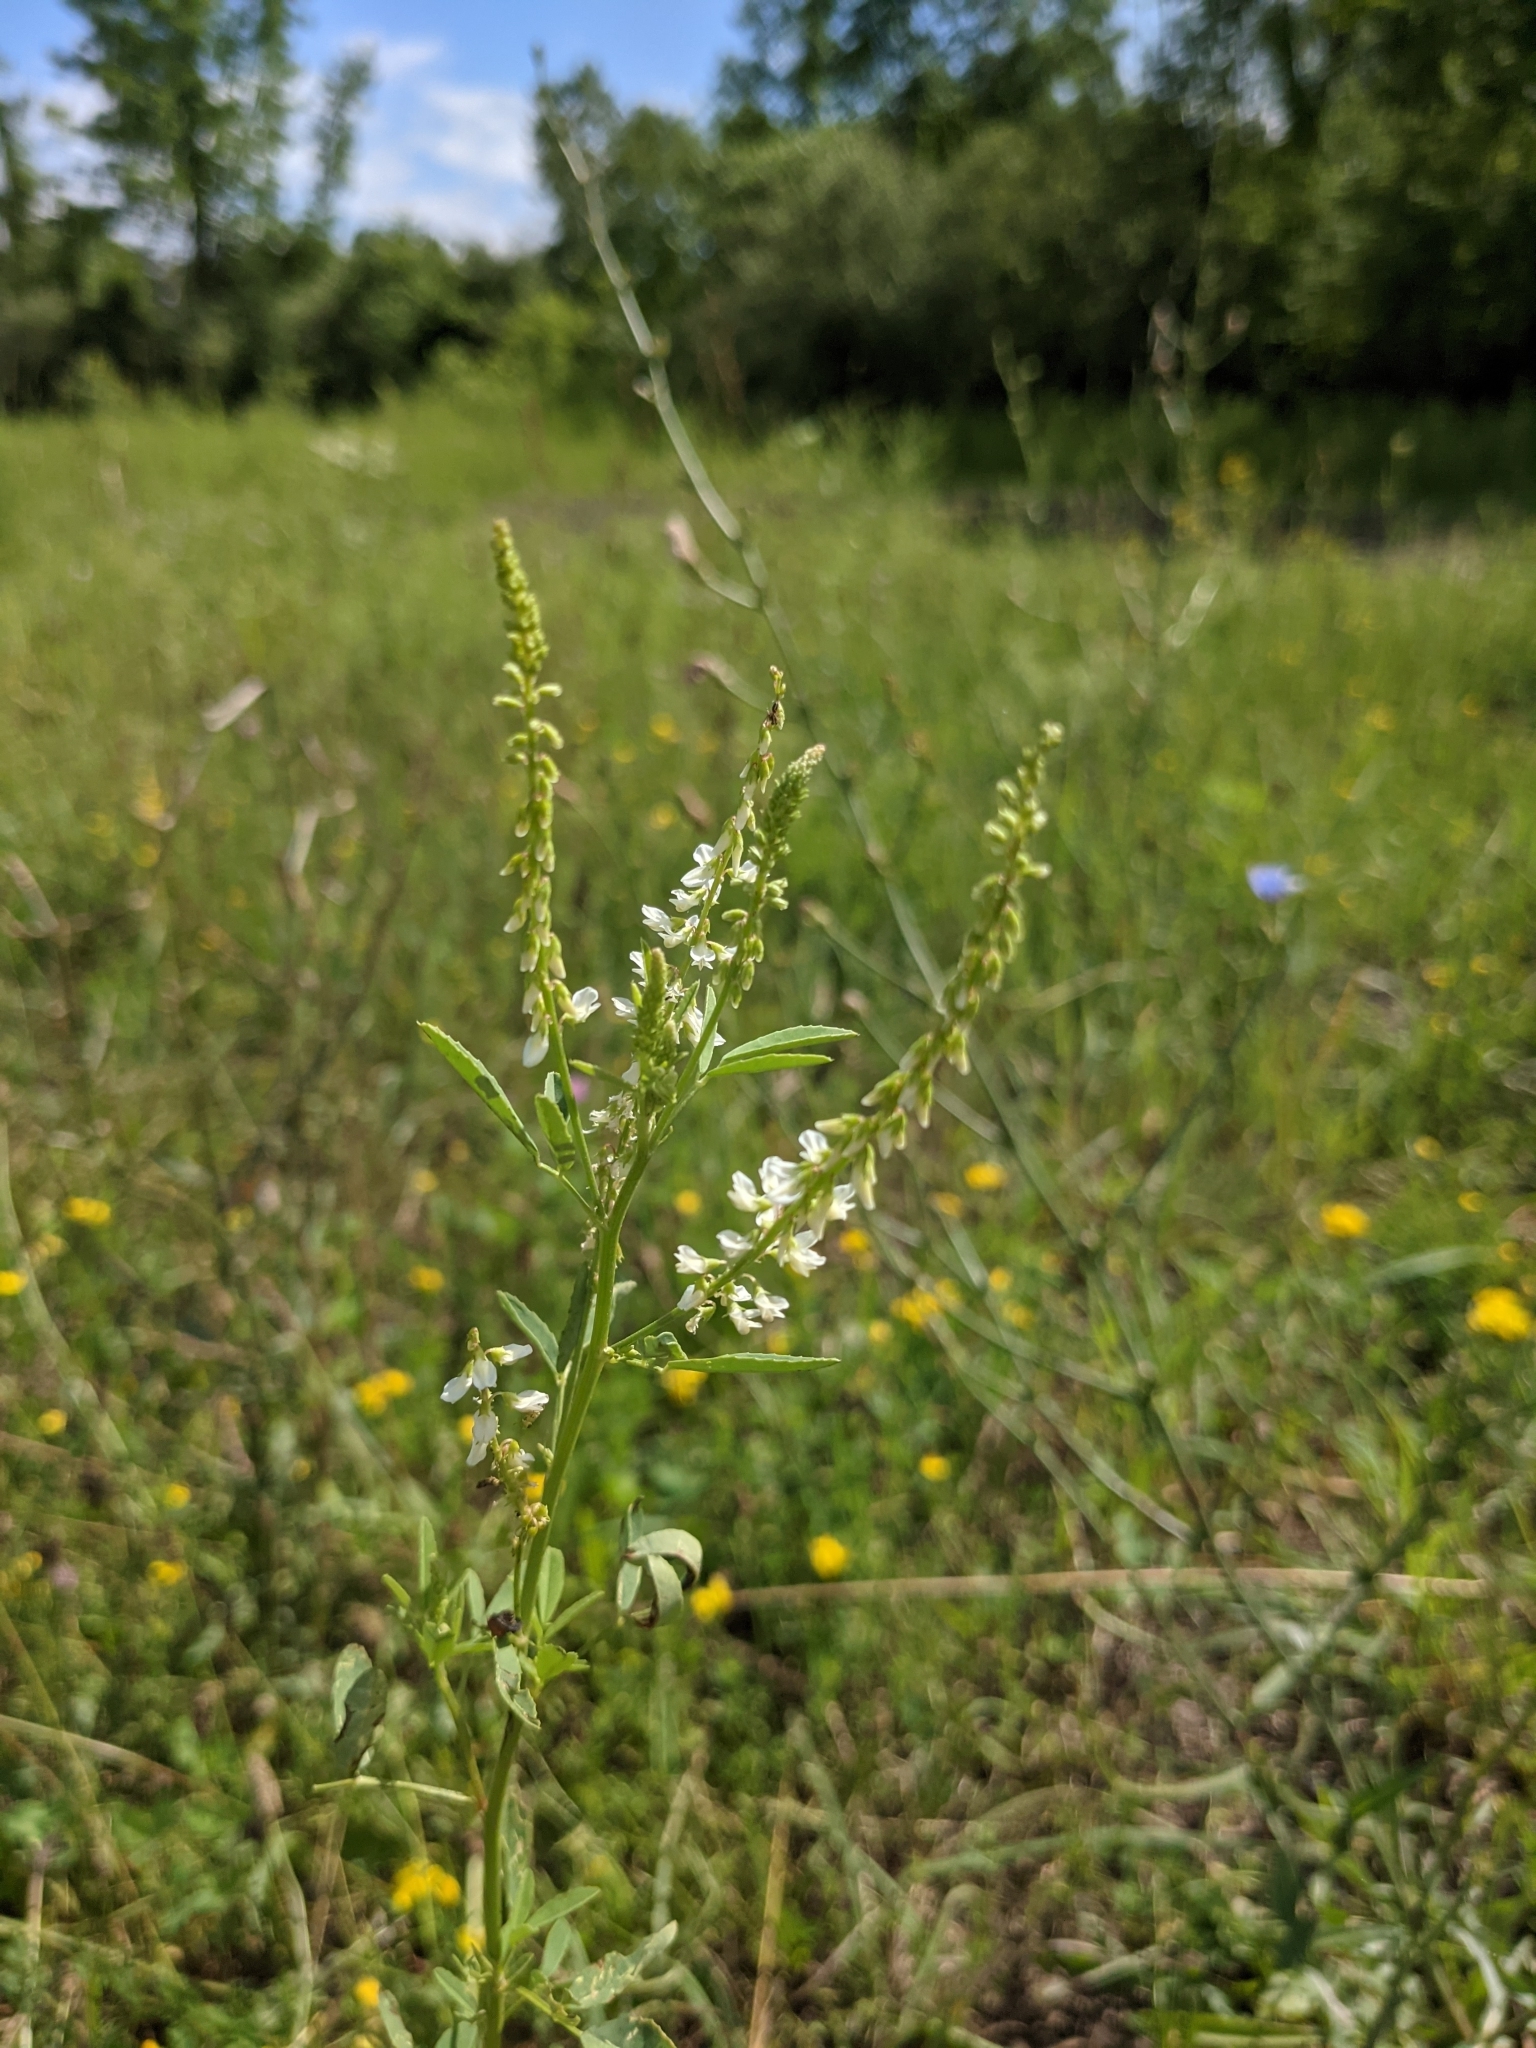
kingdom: Plantae
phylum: Tracheophyta
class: Magnoliopsida
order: Fabales
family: Fabaceae
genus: Melilotus
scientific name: Melilotus albus
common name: White melilot
